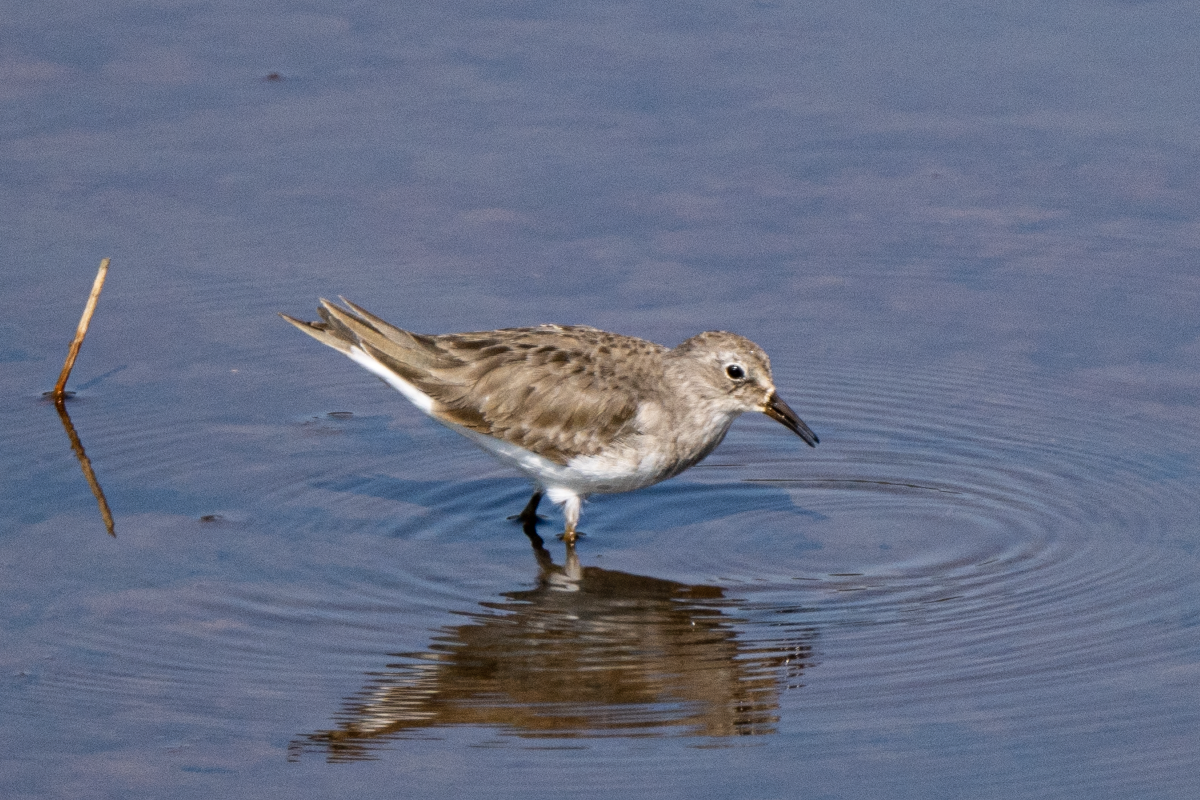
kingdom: Animalia
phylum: Chordata
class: Aves
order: Charadriiformes
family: Scolopacidae
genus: Calidris
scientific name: Calidris temminckii
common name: Temminck's stint
